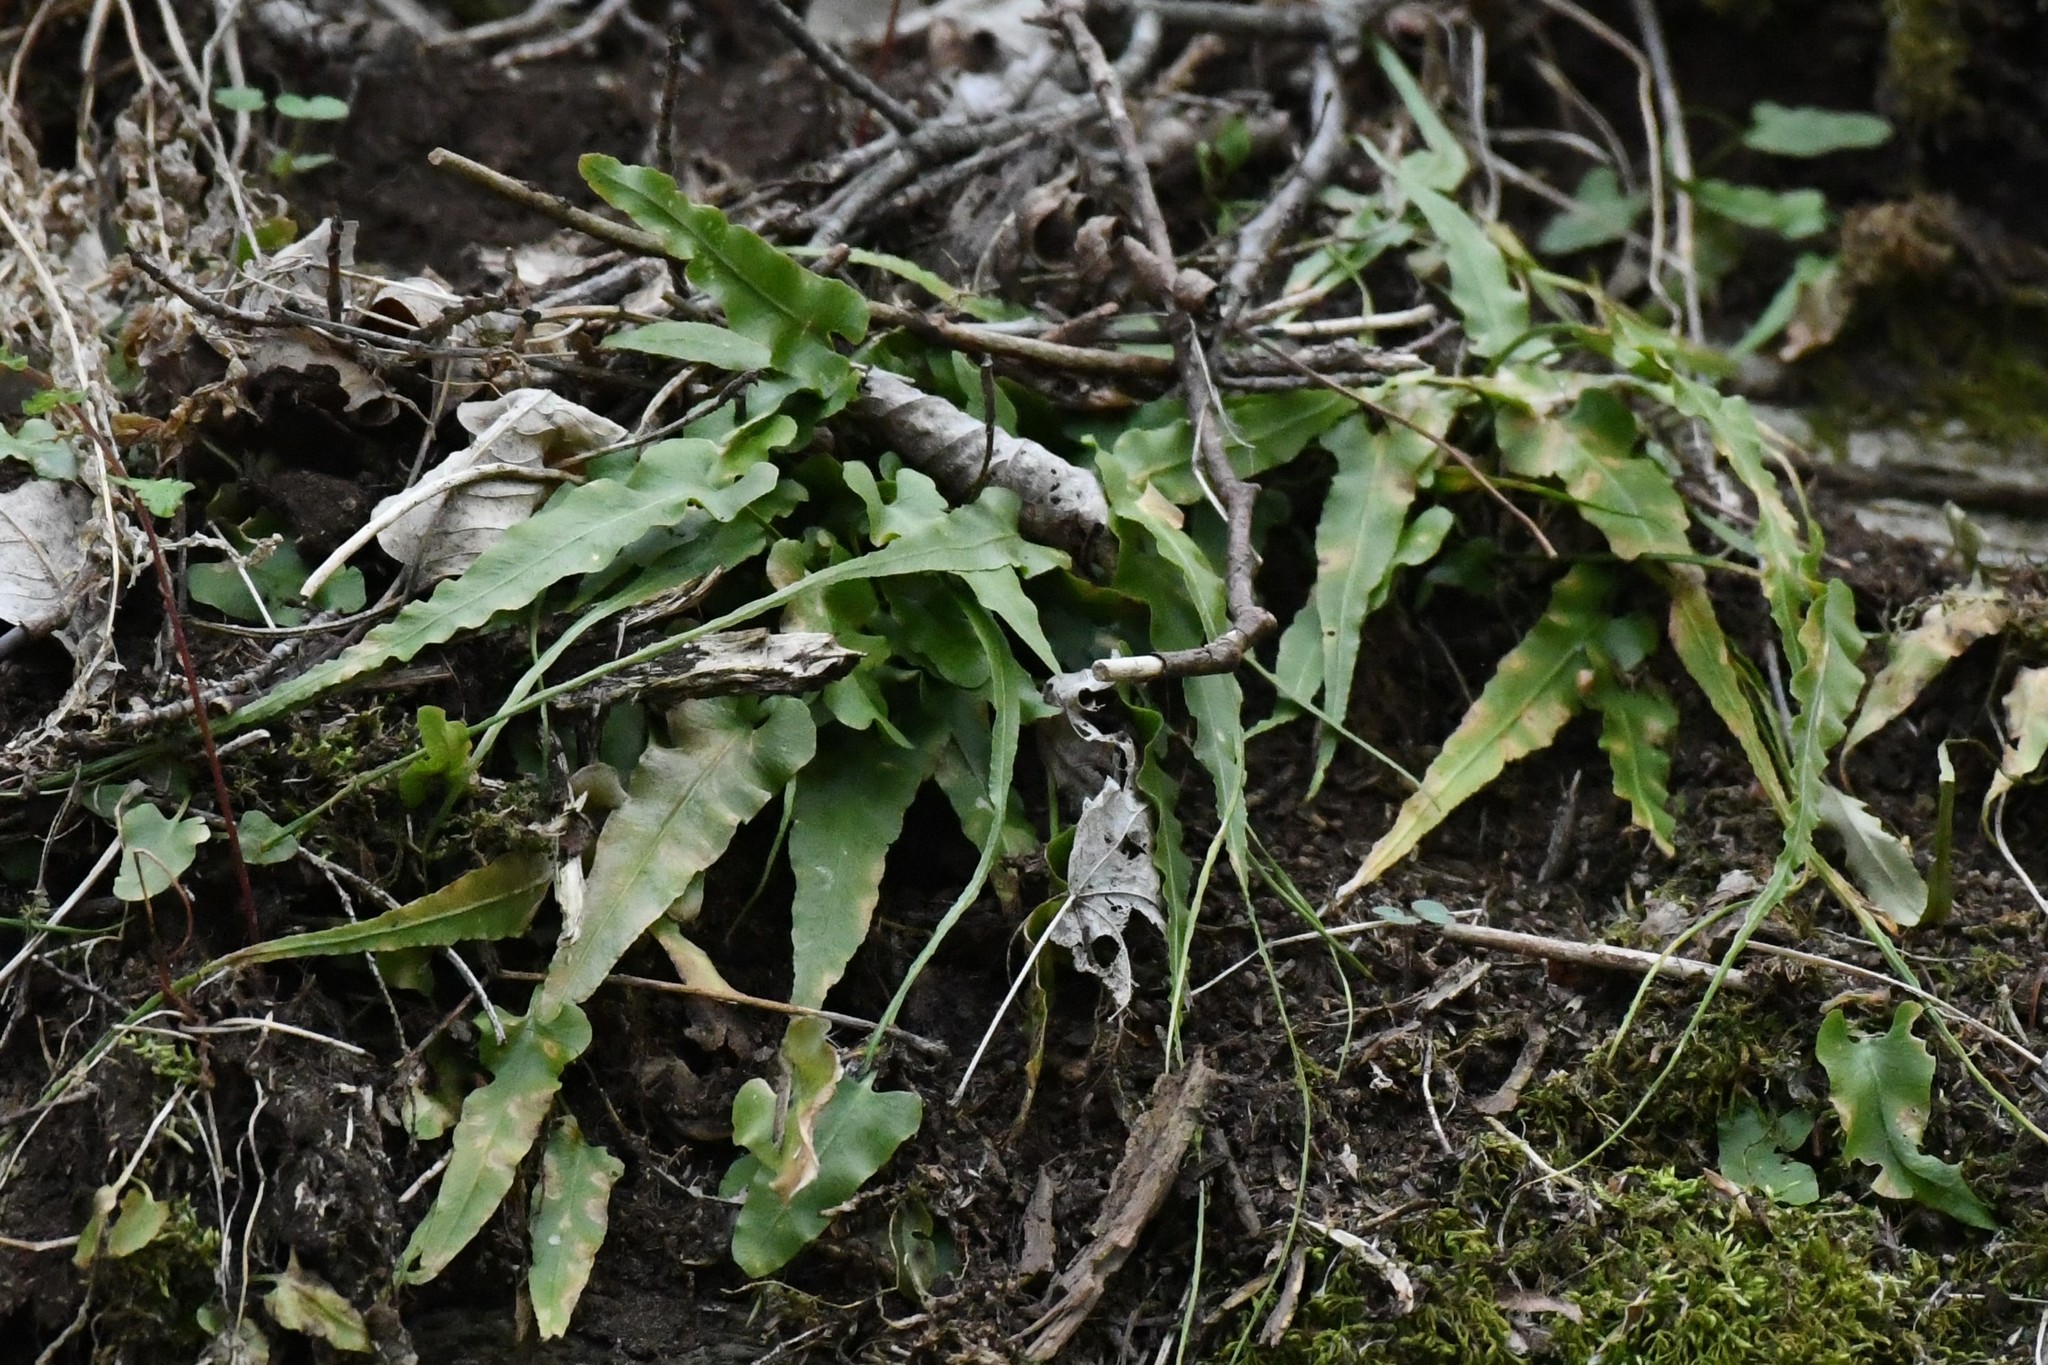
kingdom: Plantae
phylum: Tracheophyta
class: Polypodiopsida
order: Polypodiales
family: Aspleniaceae
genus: Asplenium
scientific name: Asplenium rhizophyllum
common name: Walking fern
